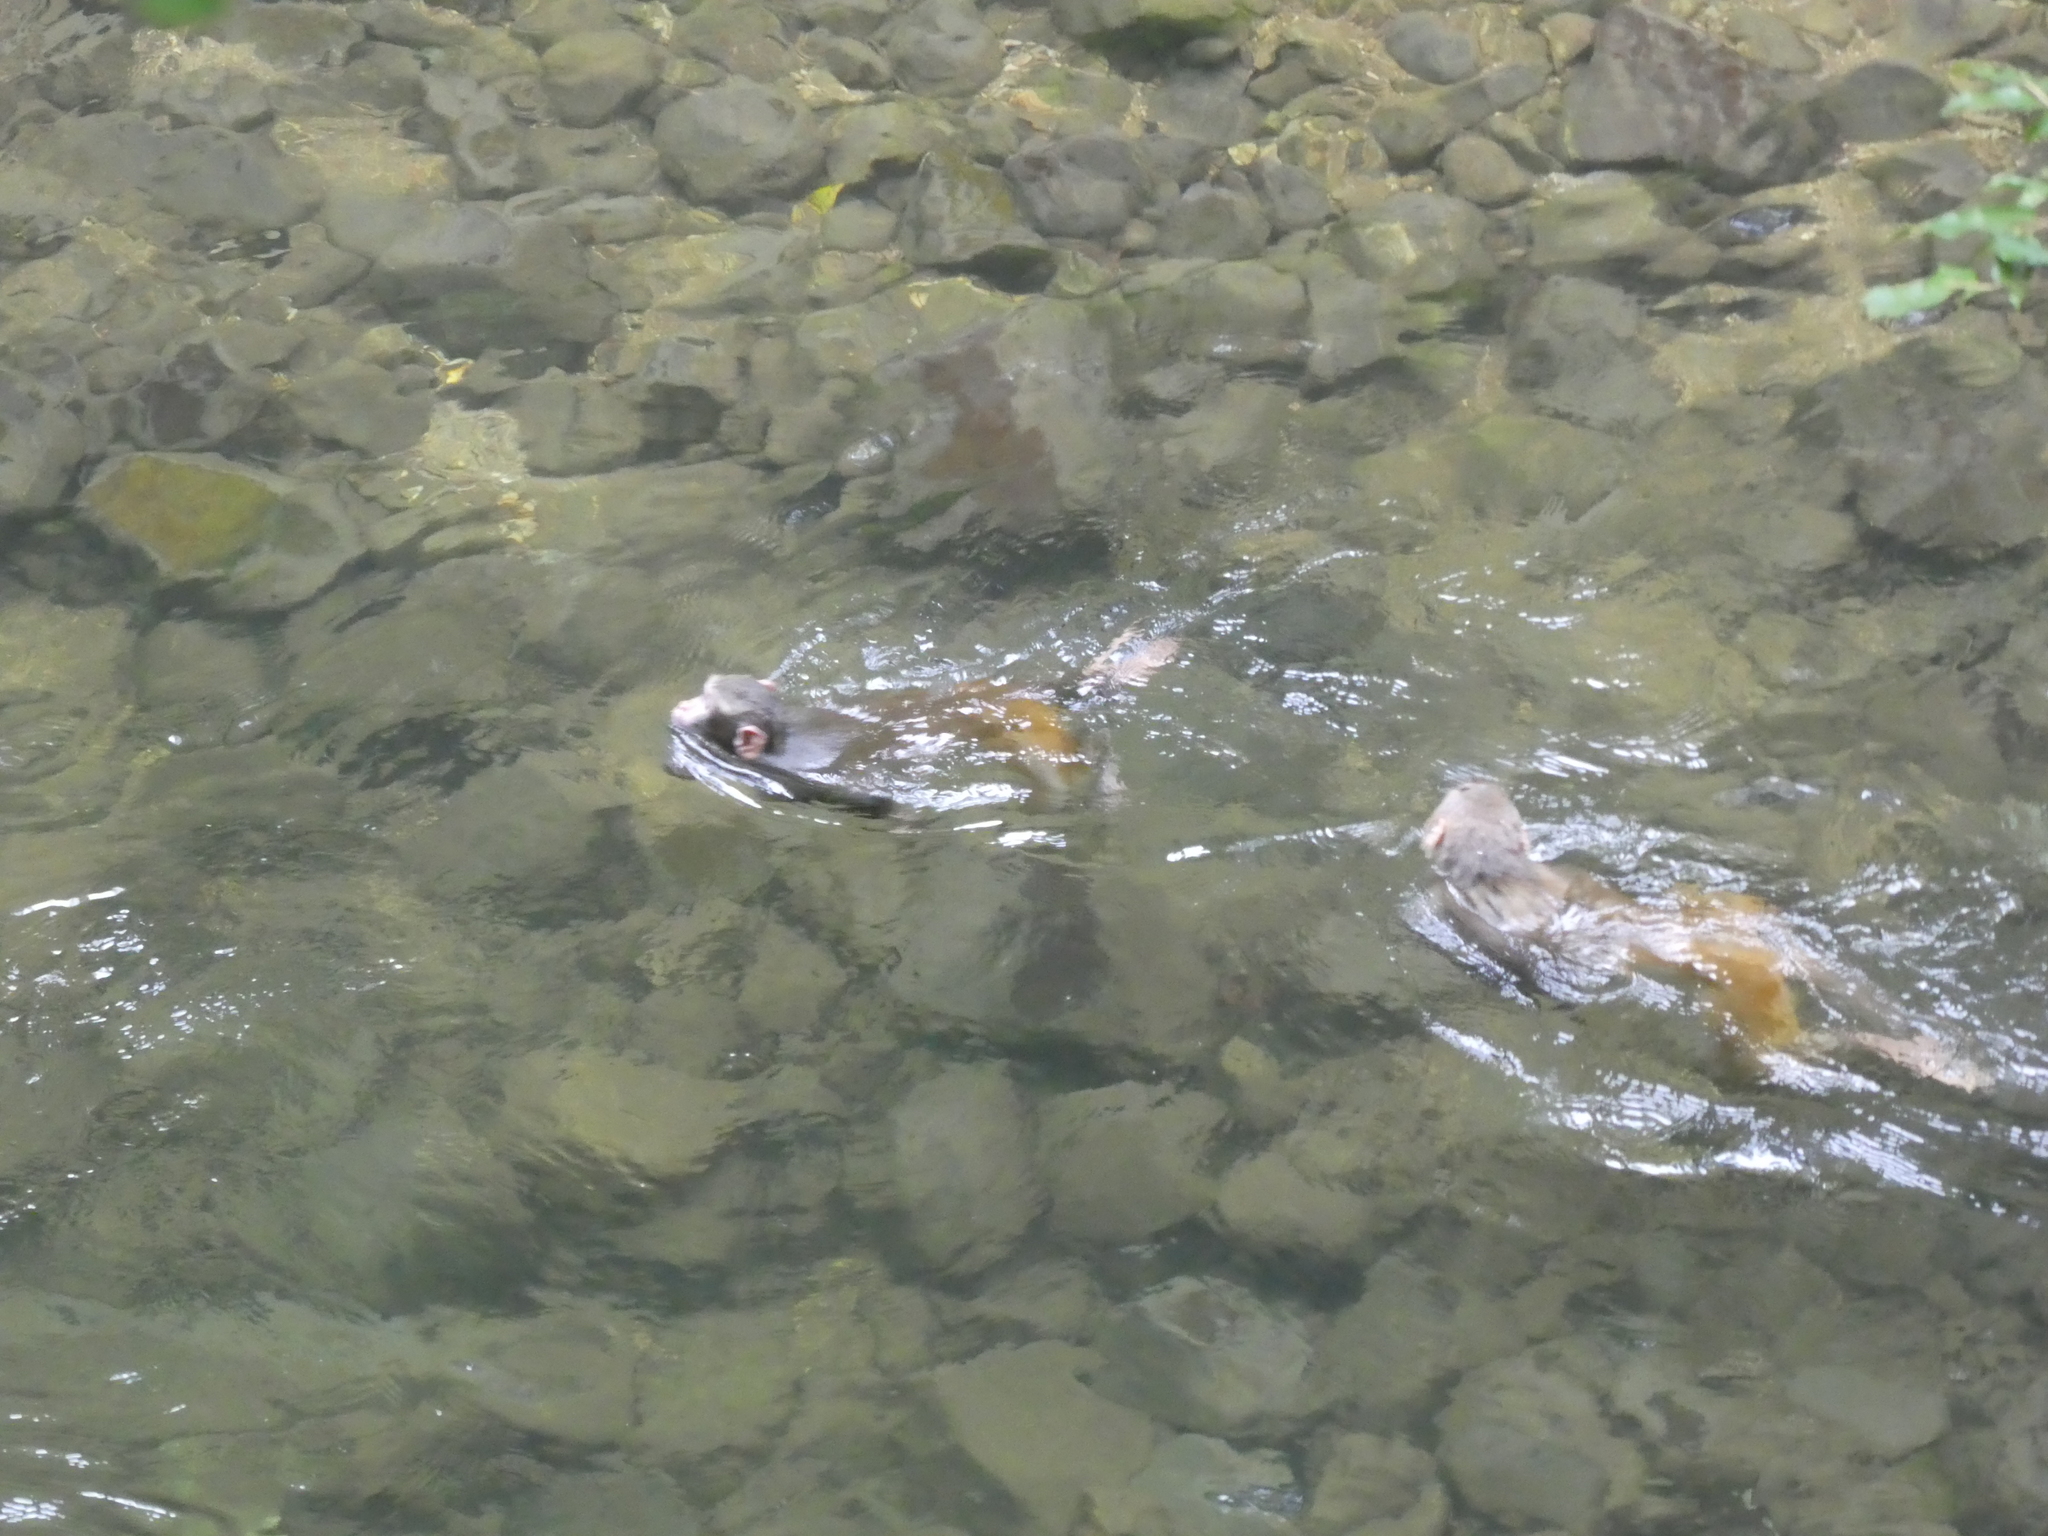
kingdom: Animalia
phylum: Chordata
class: Mammalia
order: Primates
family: Cercopithecidae
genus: Macaca
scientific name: Macaca mulatta
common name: Rhesus monkey
